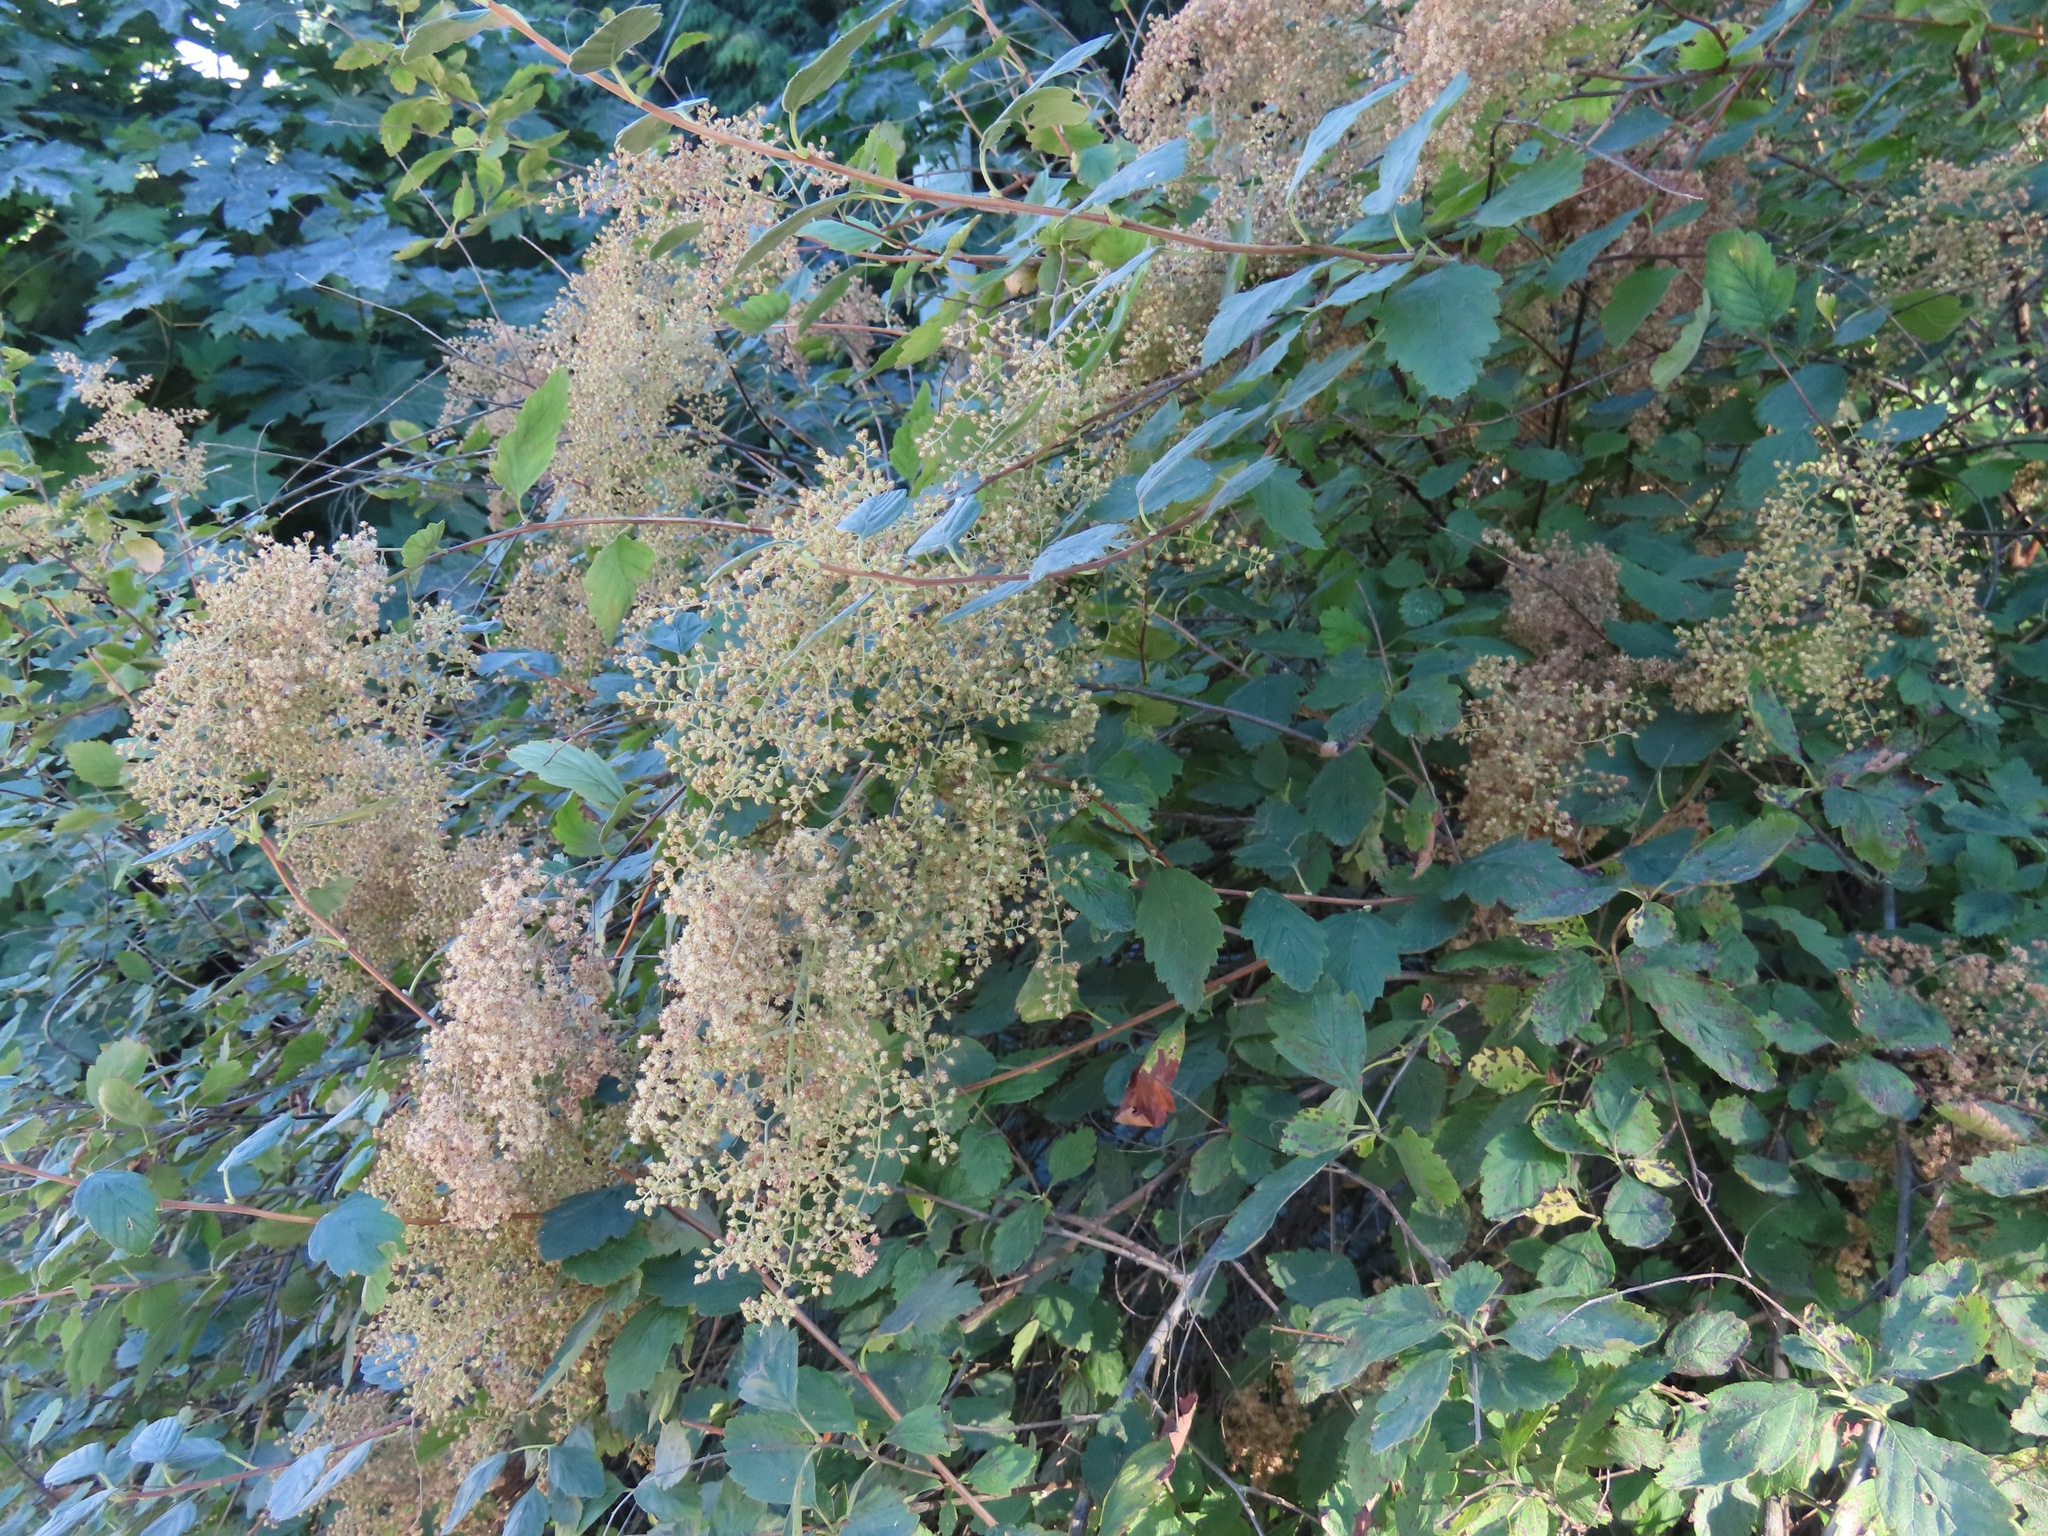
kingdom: Plantae
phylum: Tracheophyta
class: Magnoliopsida
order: Rosales
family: Rosaceae
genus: Holodiscus
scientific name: Holodiscus discolor
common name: Oceanspray
